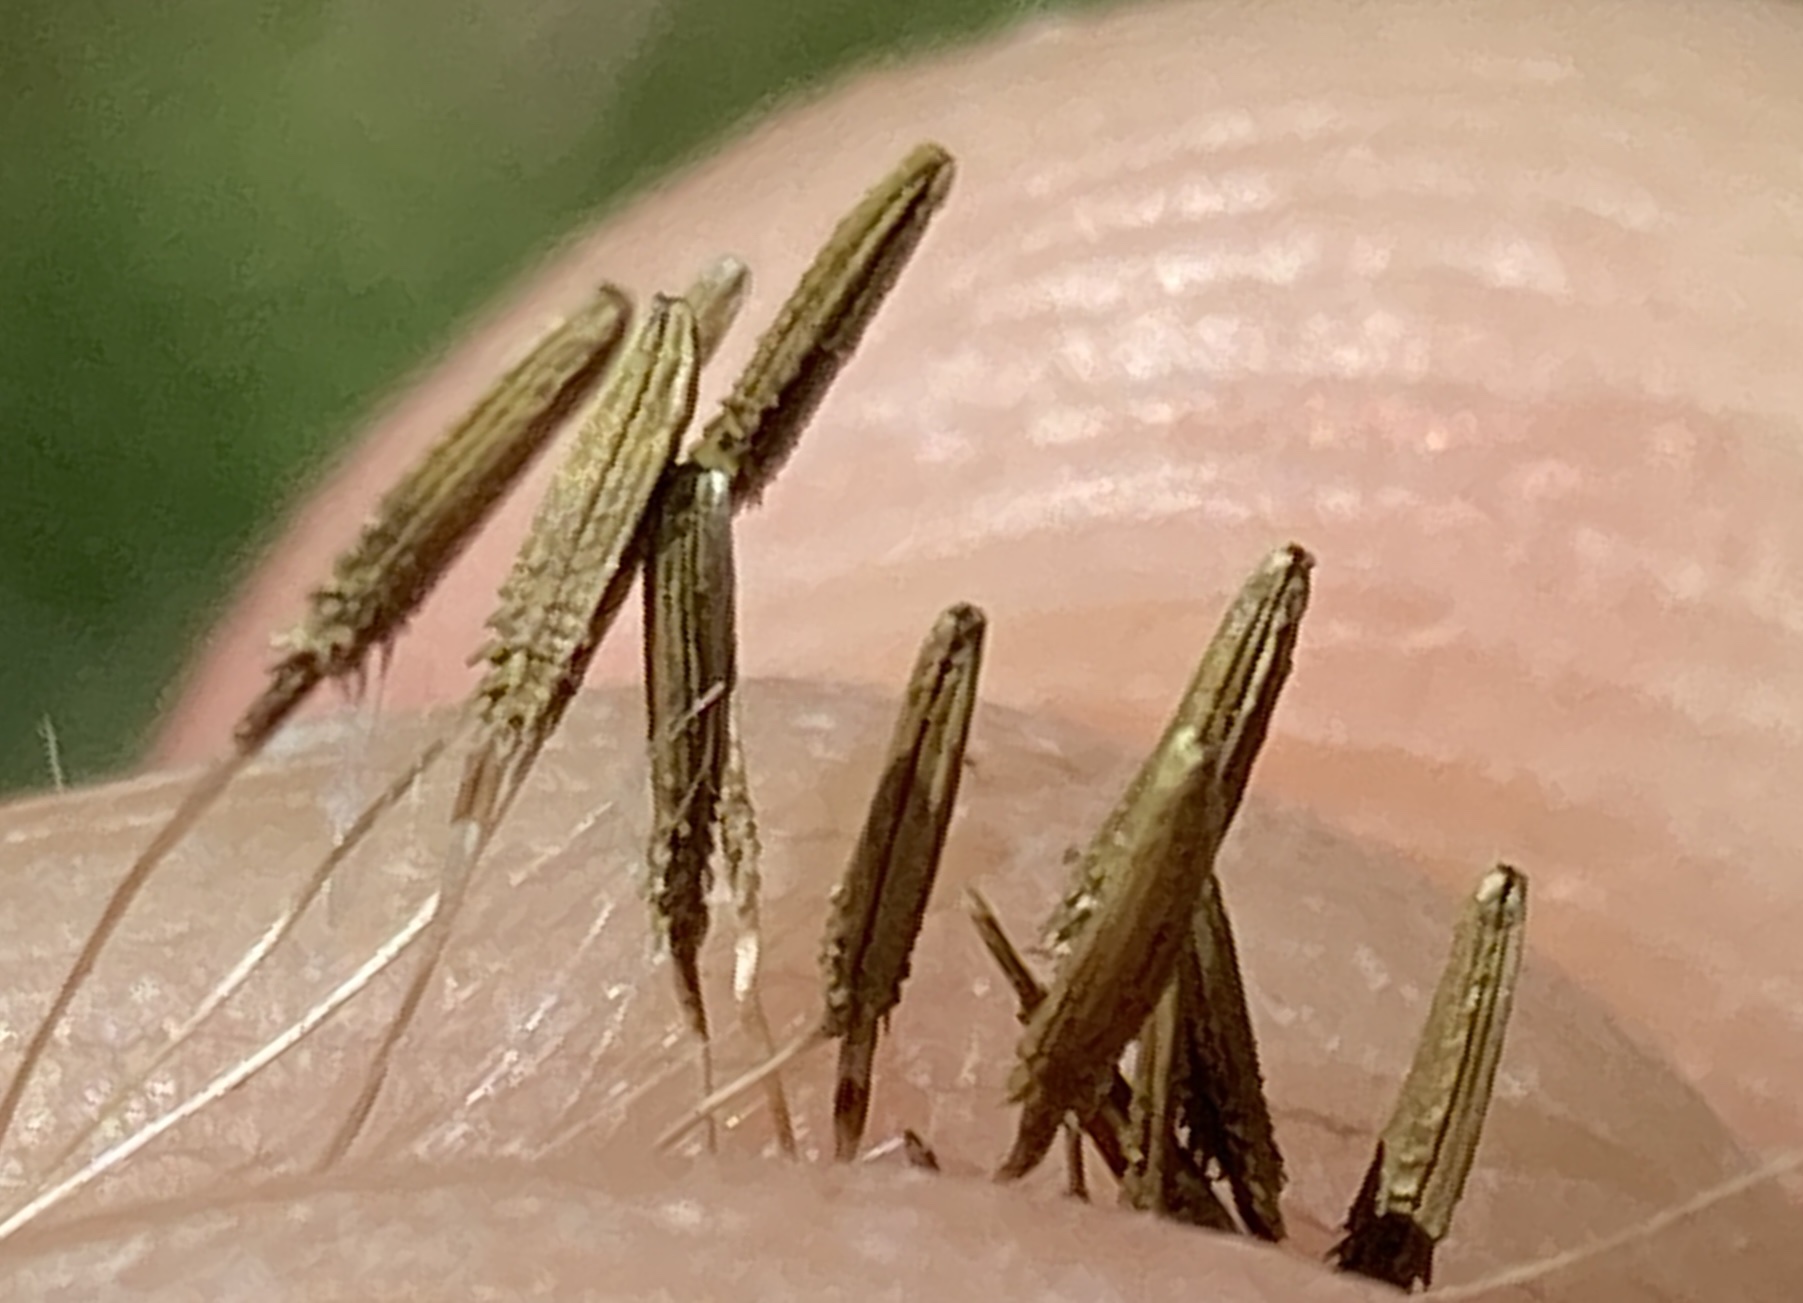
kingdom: Plantae
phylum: Tracheophyta
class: Magnoliopsida
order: Asterales
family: Asteraceae
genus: Taraxacum
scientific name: Taraxacum officinale
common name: Common dandelion
